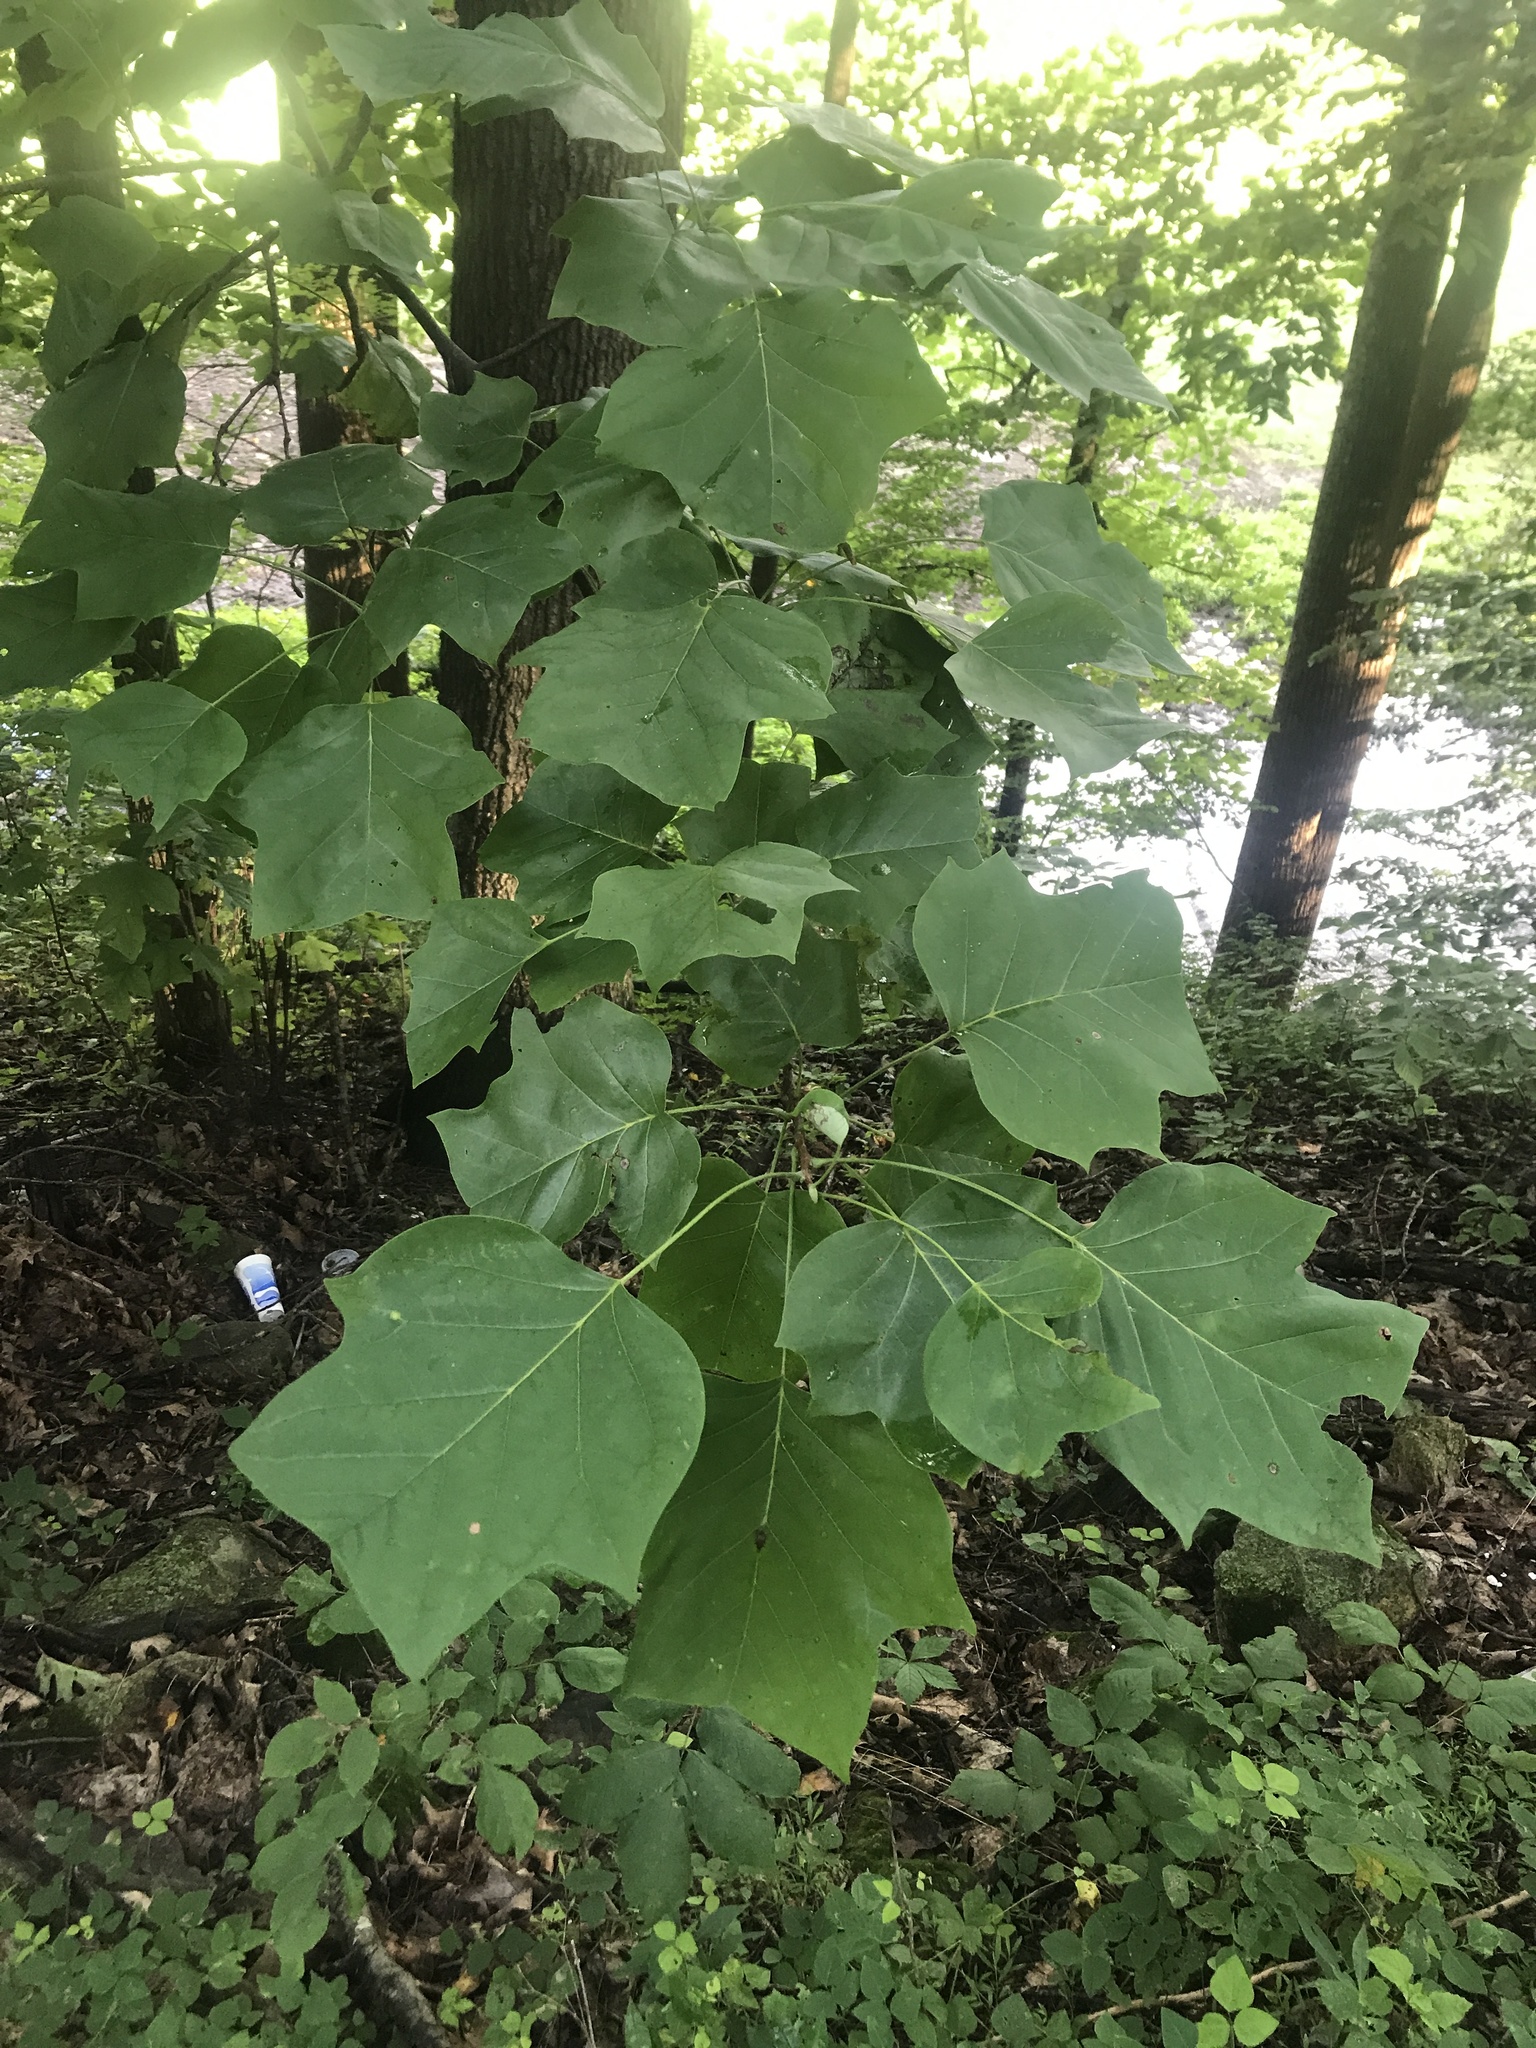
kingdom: Plantae
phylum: Tracheophyta
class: Magnoliopsida
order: Magnoliales
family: Magnoliaceae
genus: Liriodendron
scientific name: Liriodendron tulipifera
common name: Tulip tree
